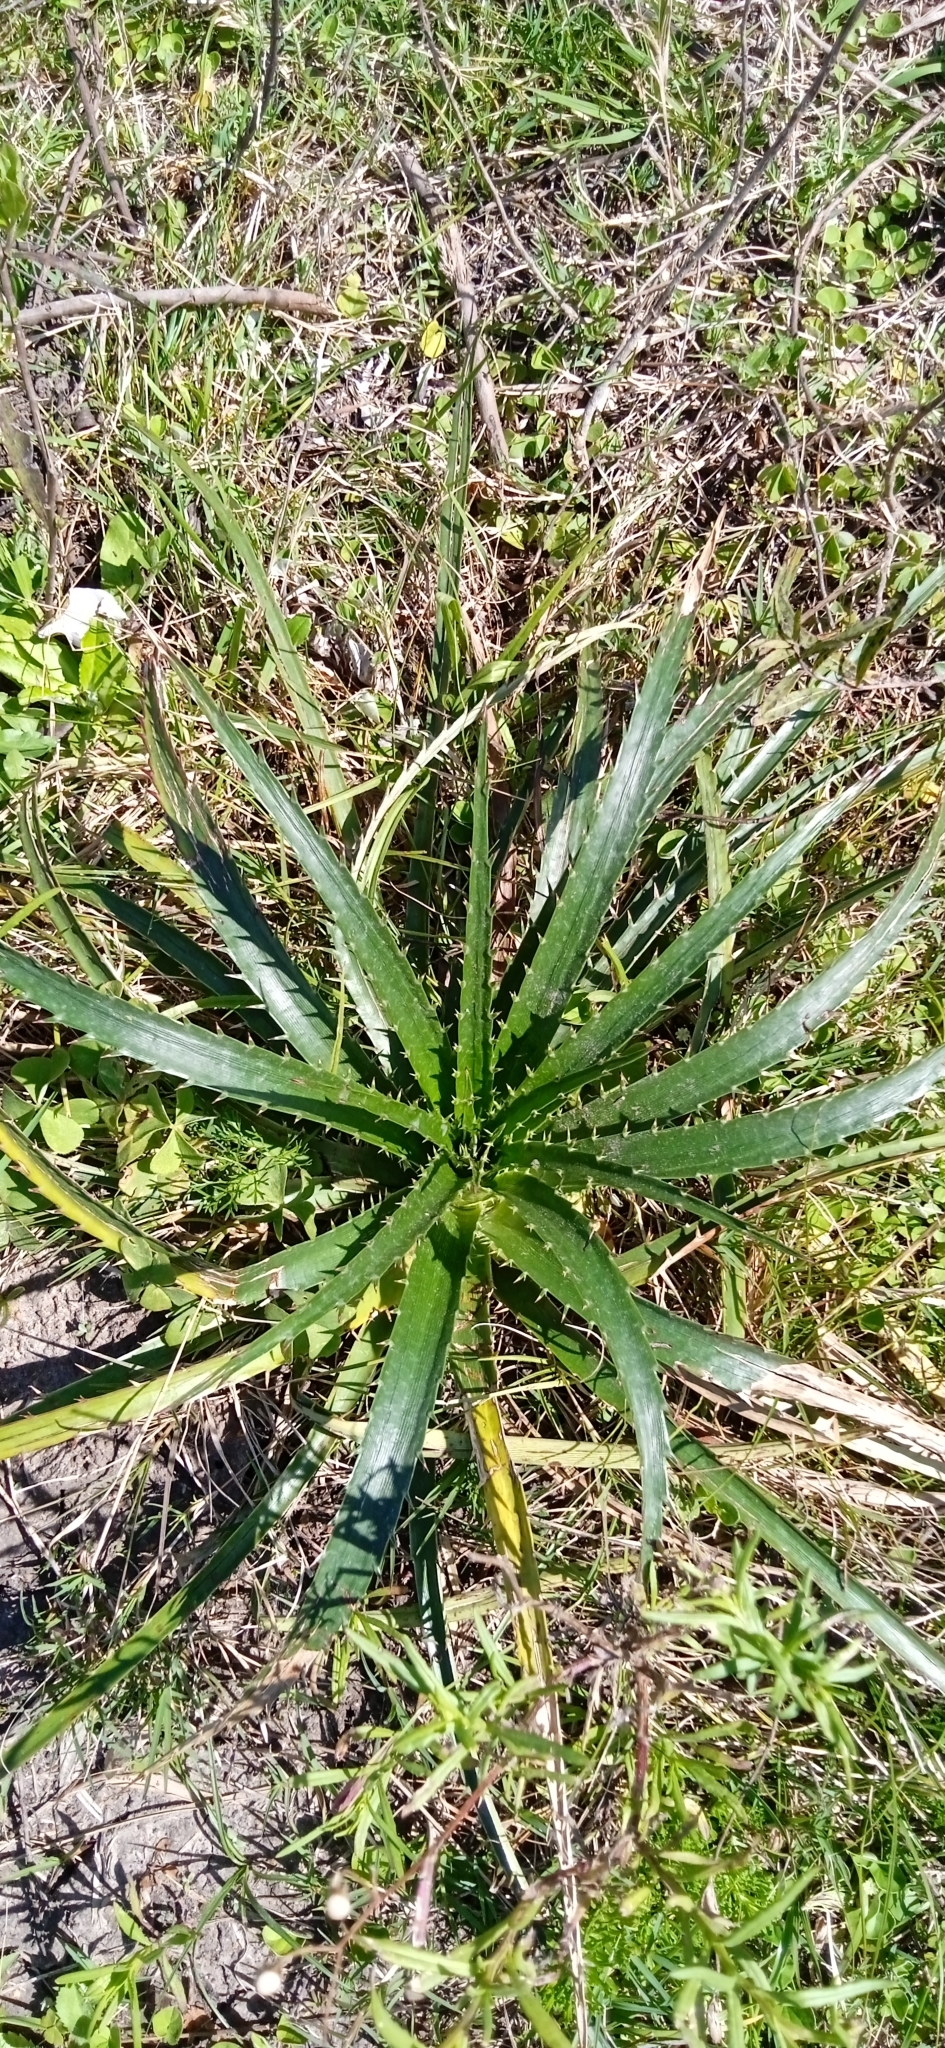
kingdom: Plantae
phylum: Tracheophyta
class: Magnoliopsida
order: Apiales
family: Apiaceae
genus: Eryngium
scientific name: Eryngium horridum
